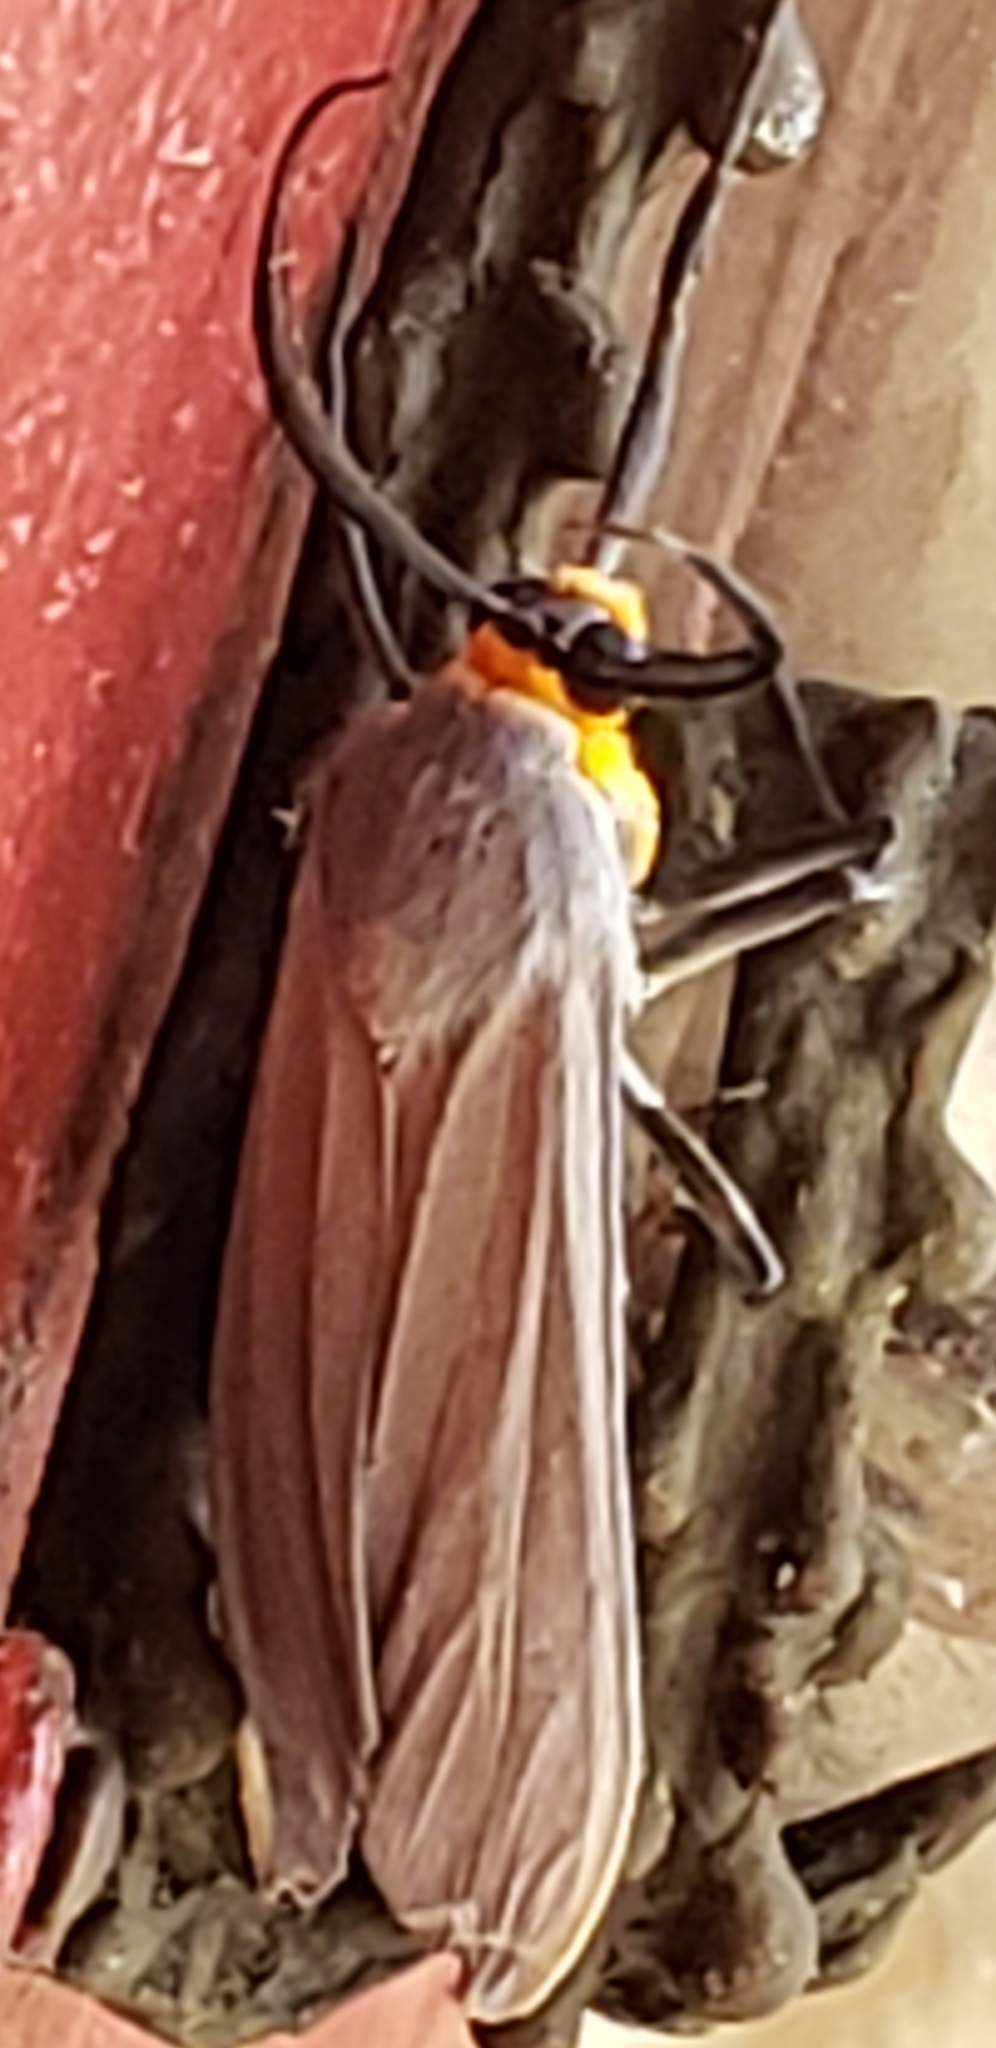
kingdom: Animalia
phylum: Arthropoda
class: Insecta
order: Lepidoptera
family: Erebidae
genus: Lymire
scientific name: Lymire edwardsii
